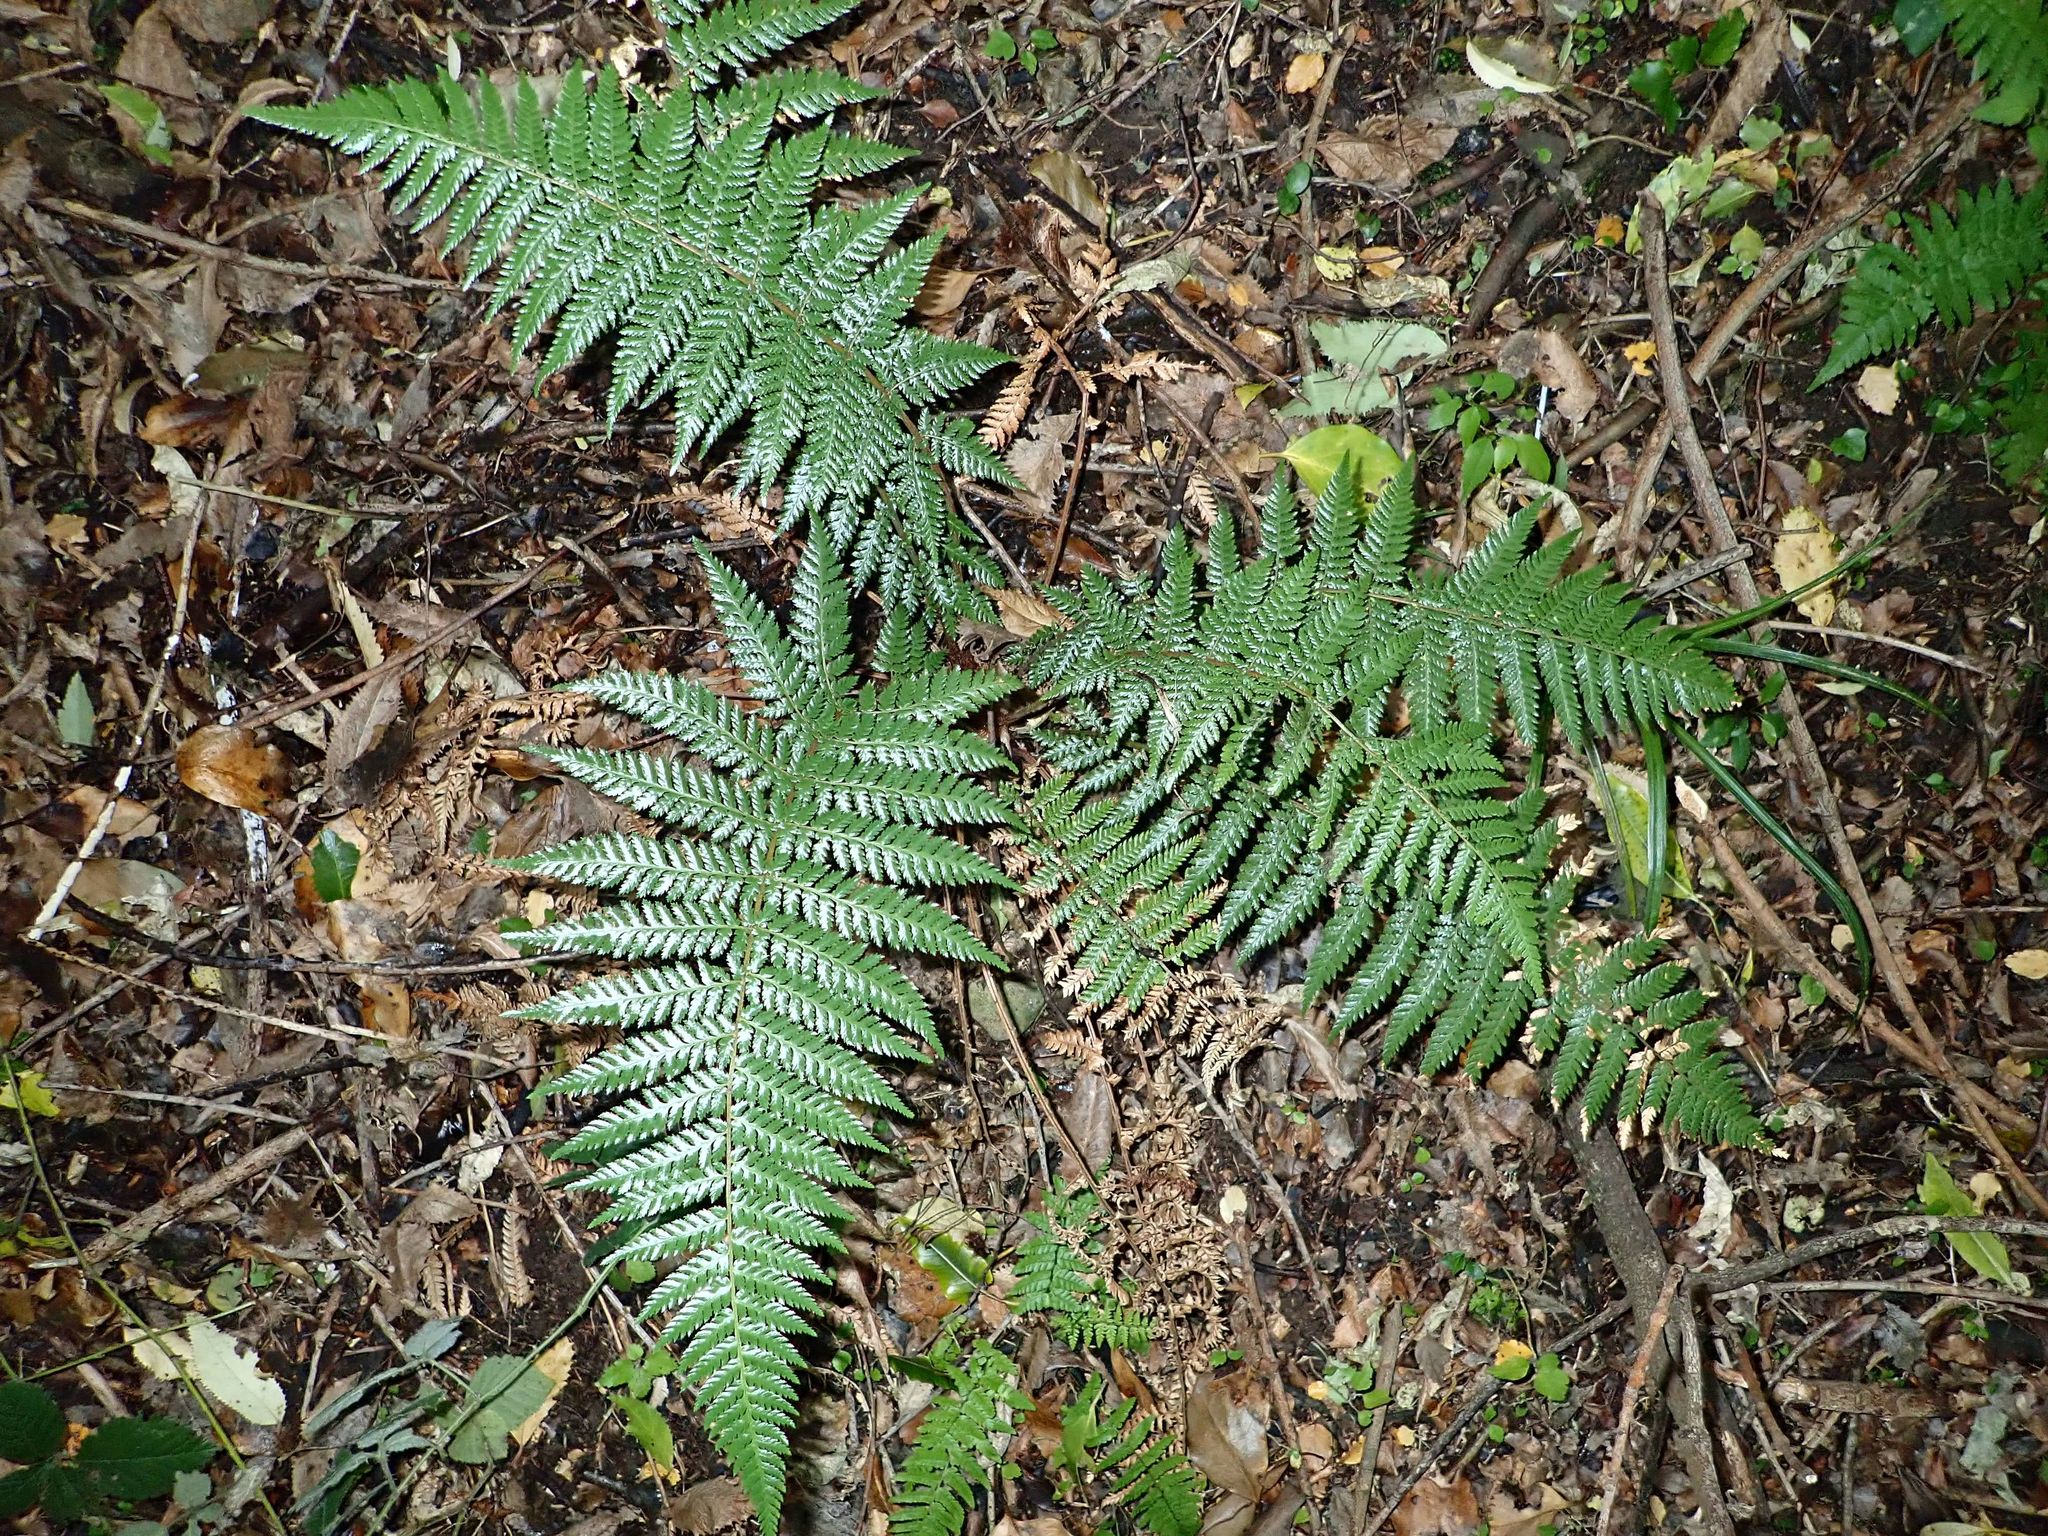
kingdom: Plantae
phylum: Tracheophyta
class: Polypodiopsida
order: Cyatheales
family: Dicksoniaceae
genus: Dicksonia
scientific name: Dicksonia fibrosa
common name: Golden tree fern
